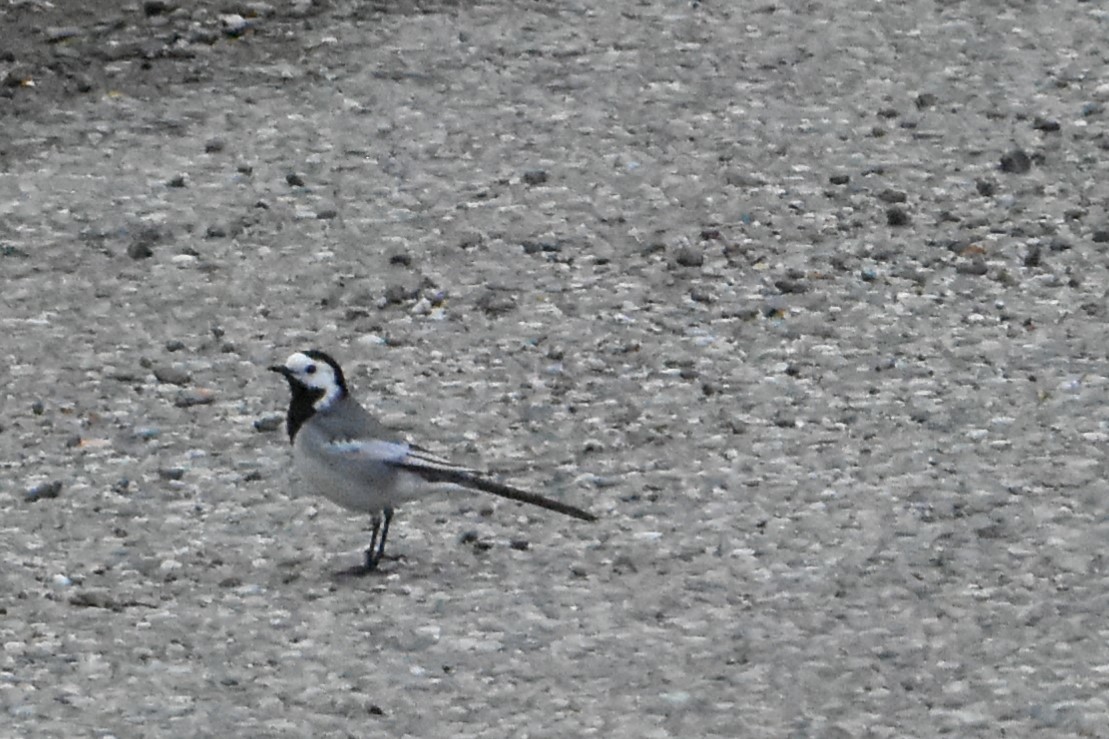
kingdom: Animalia
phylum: Chordata
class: Aves
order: Passeriformes
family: Motacillidae
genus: Motacilla
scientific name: Motacilla alba
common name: White wagtail
